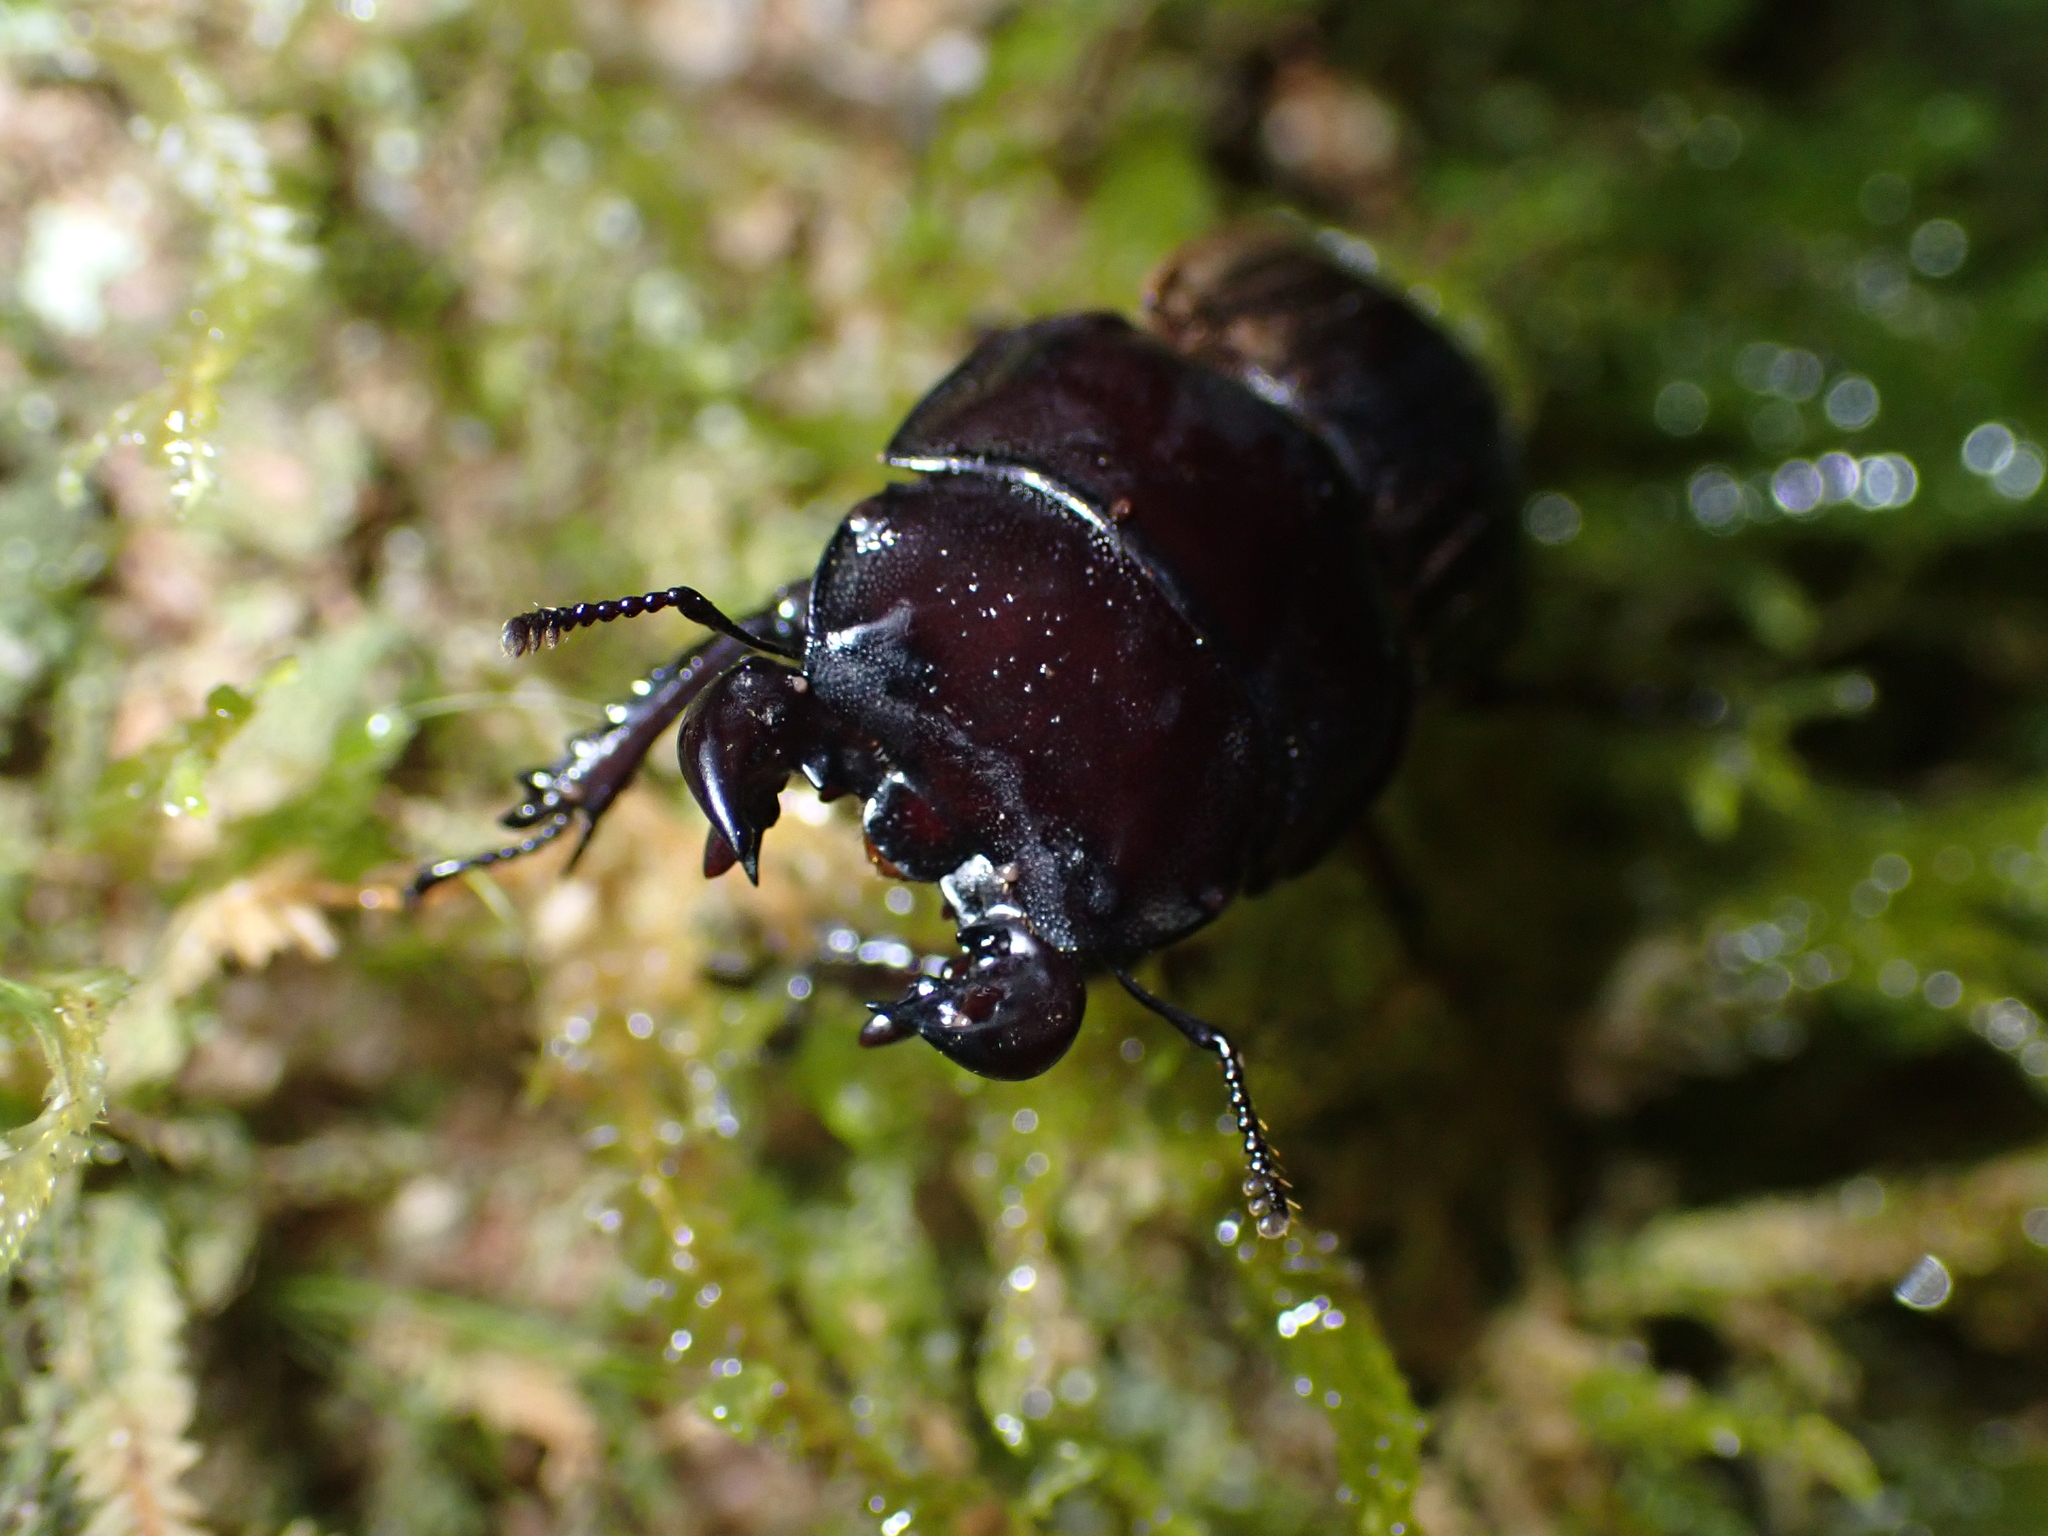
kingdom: Animalia
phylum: Arthropoda
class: Insecta
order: Coleoptera
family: Lucanidae
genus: Geodorcus
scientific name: Geodorcus helmsi
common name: Helm's stag beetle
